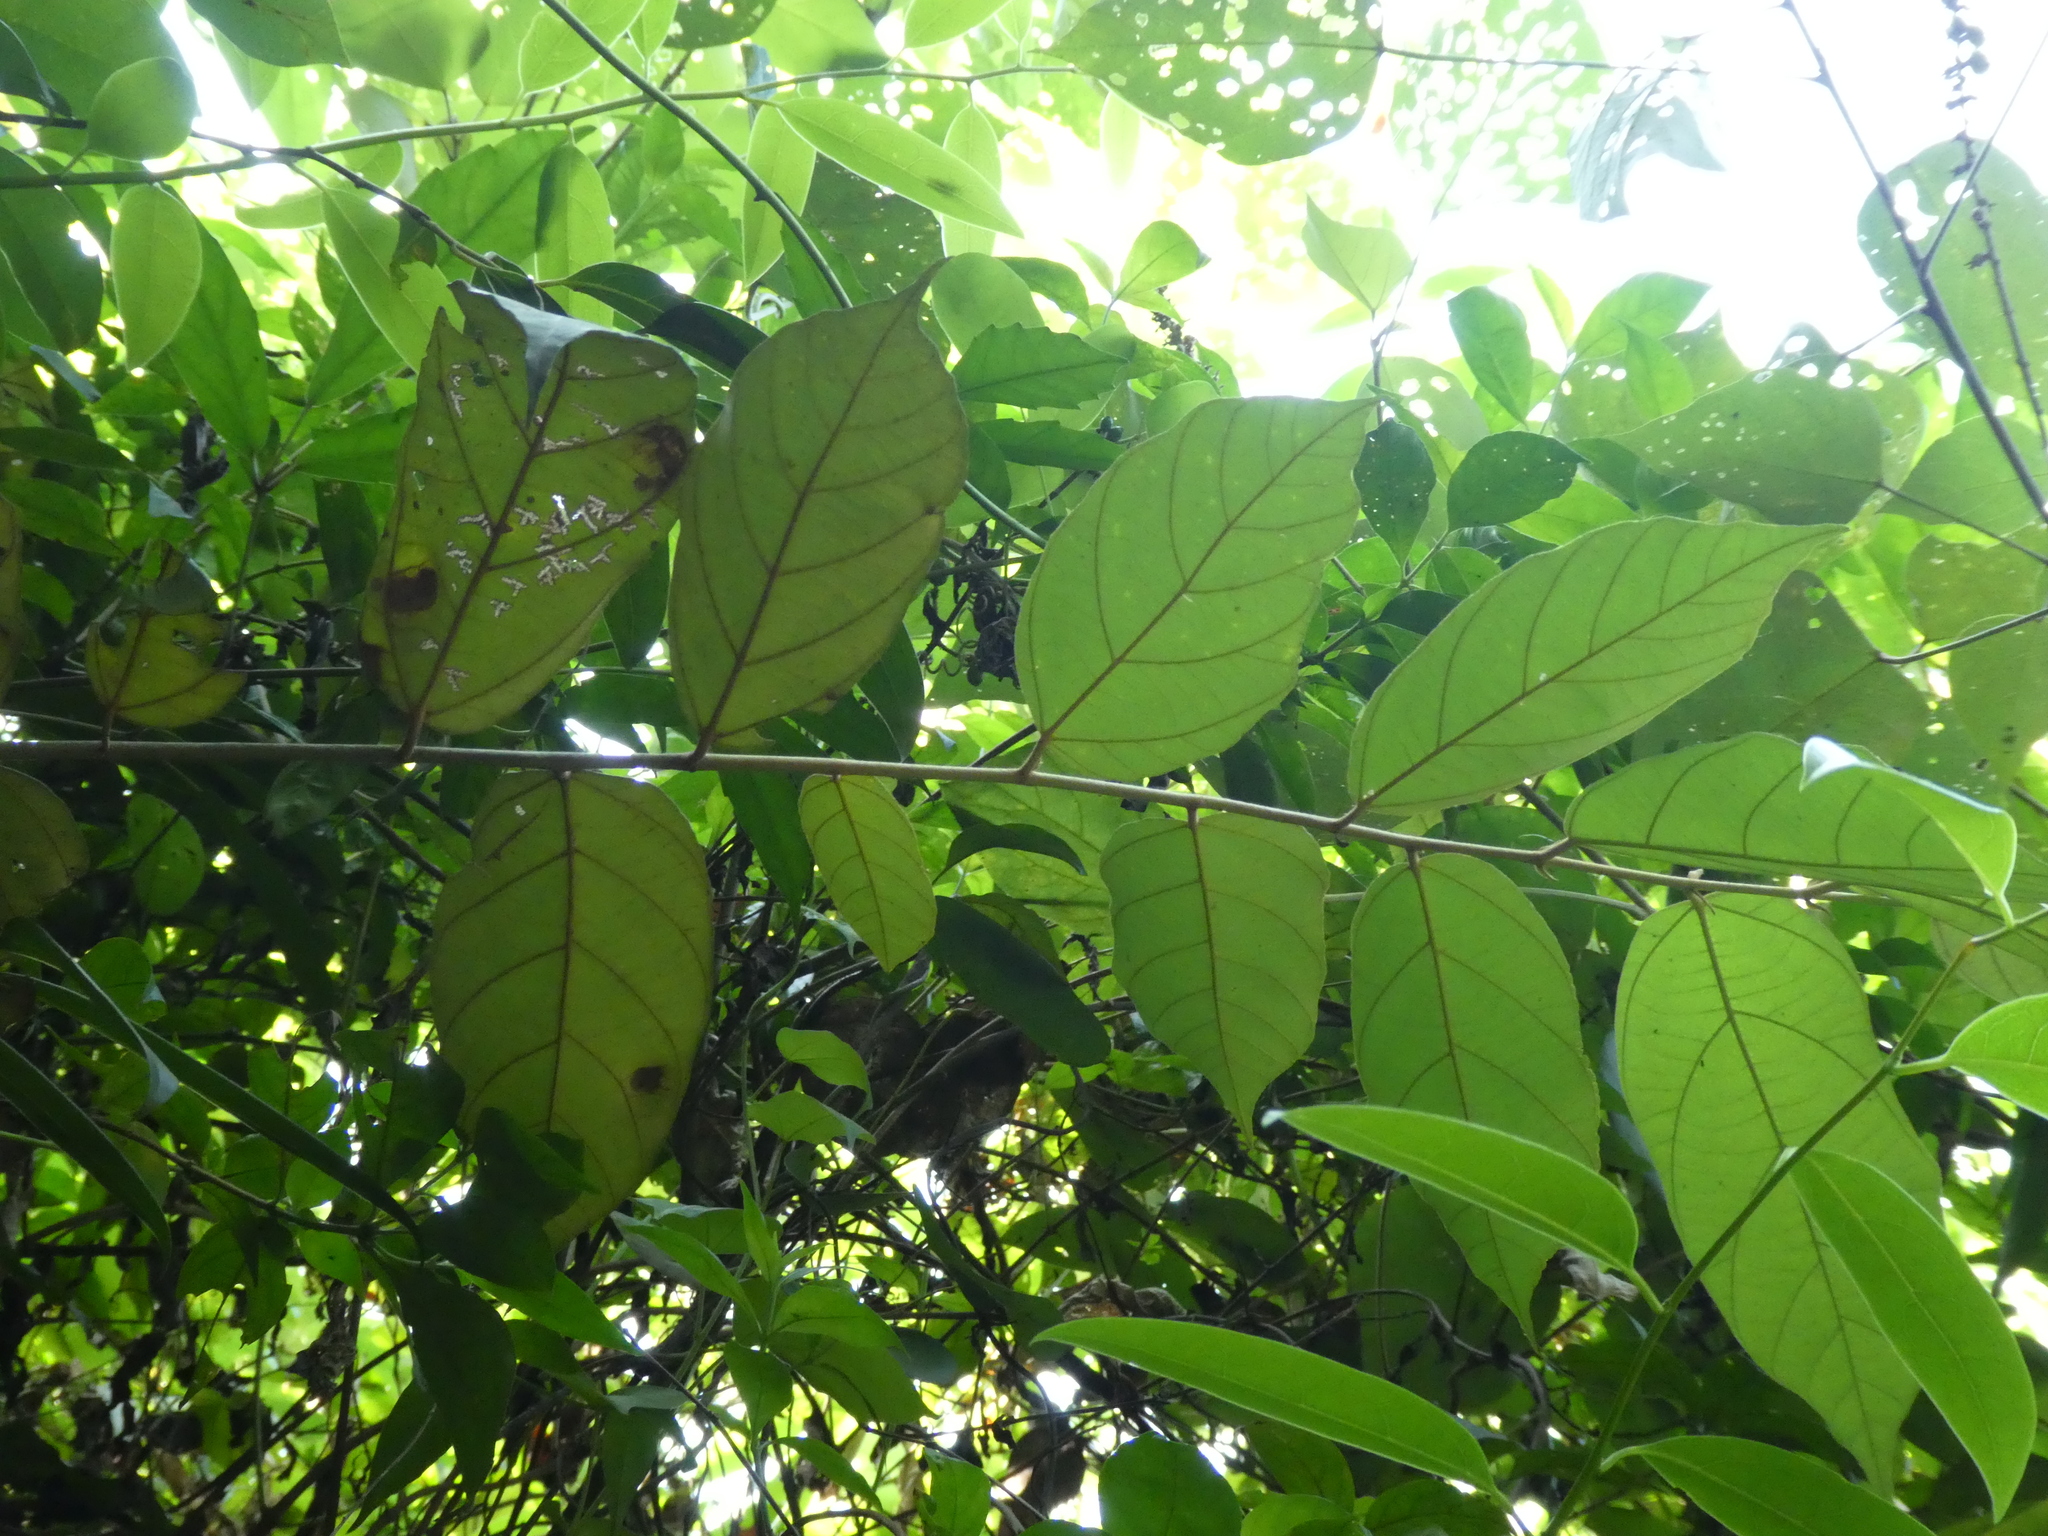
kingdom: Plantae
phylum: Tracheophyta
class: Magnoliopsida
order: Malvales
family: Malvaceae
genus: Pterospermum
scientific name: Pterospermum heterophyllum
